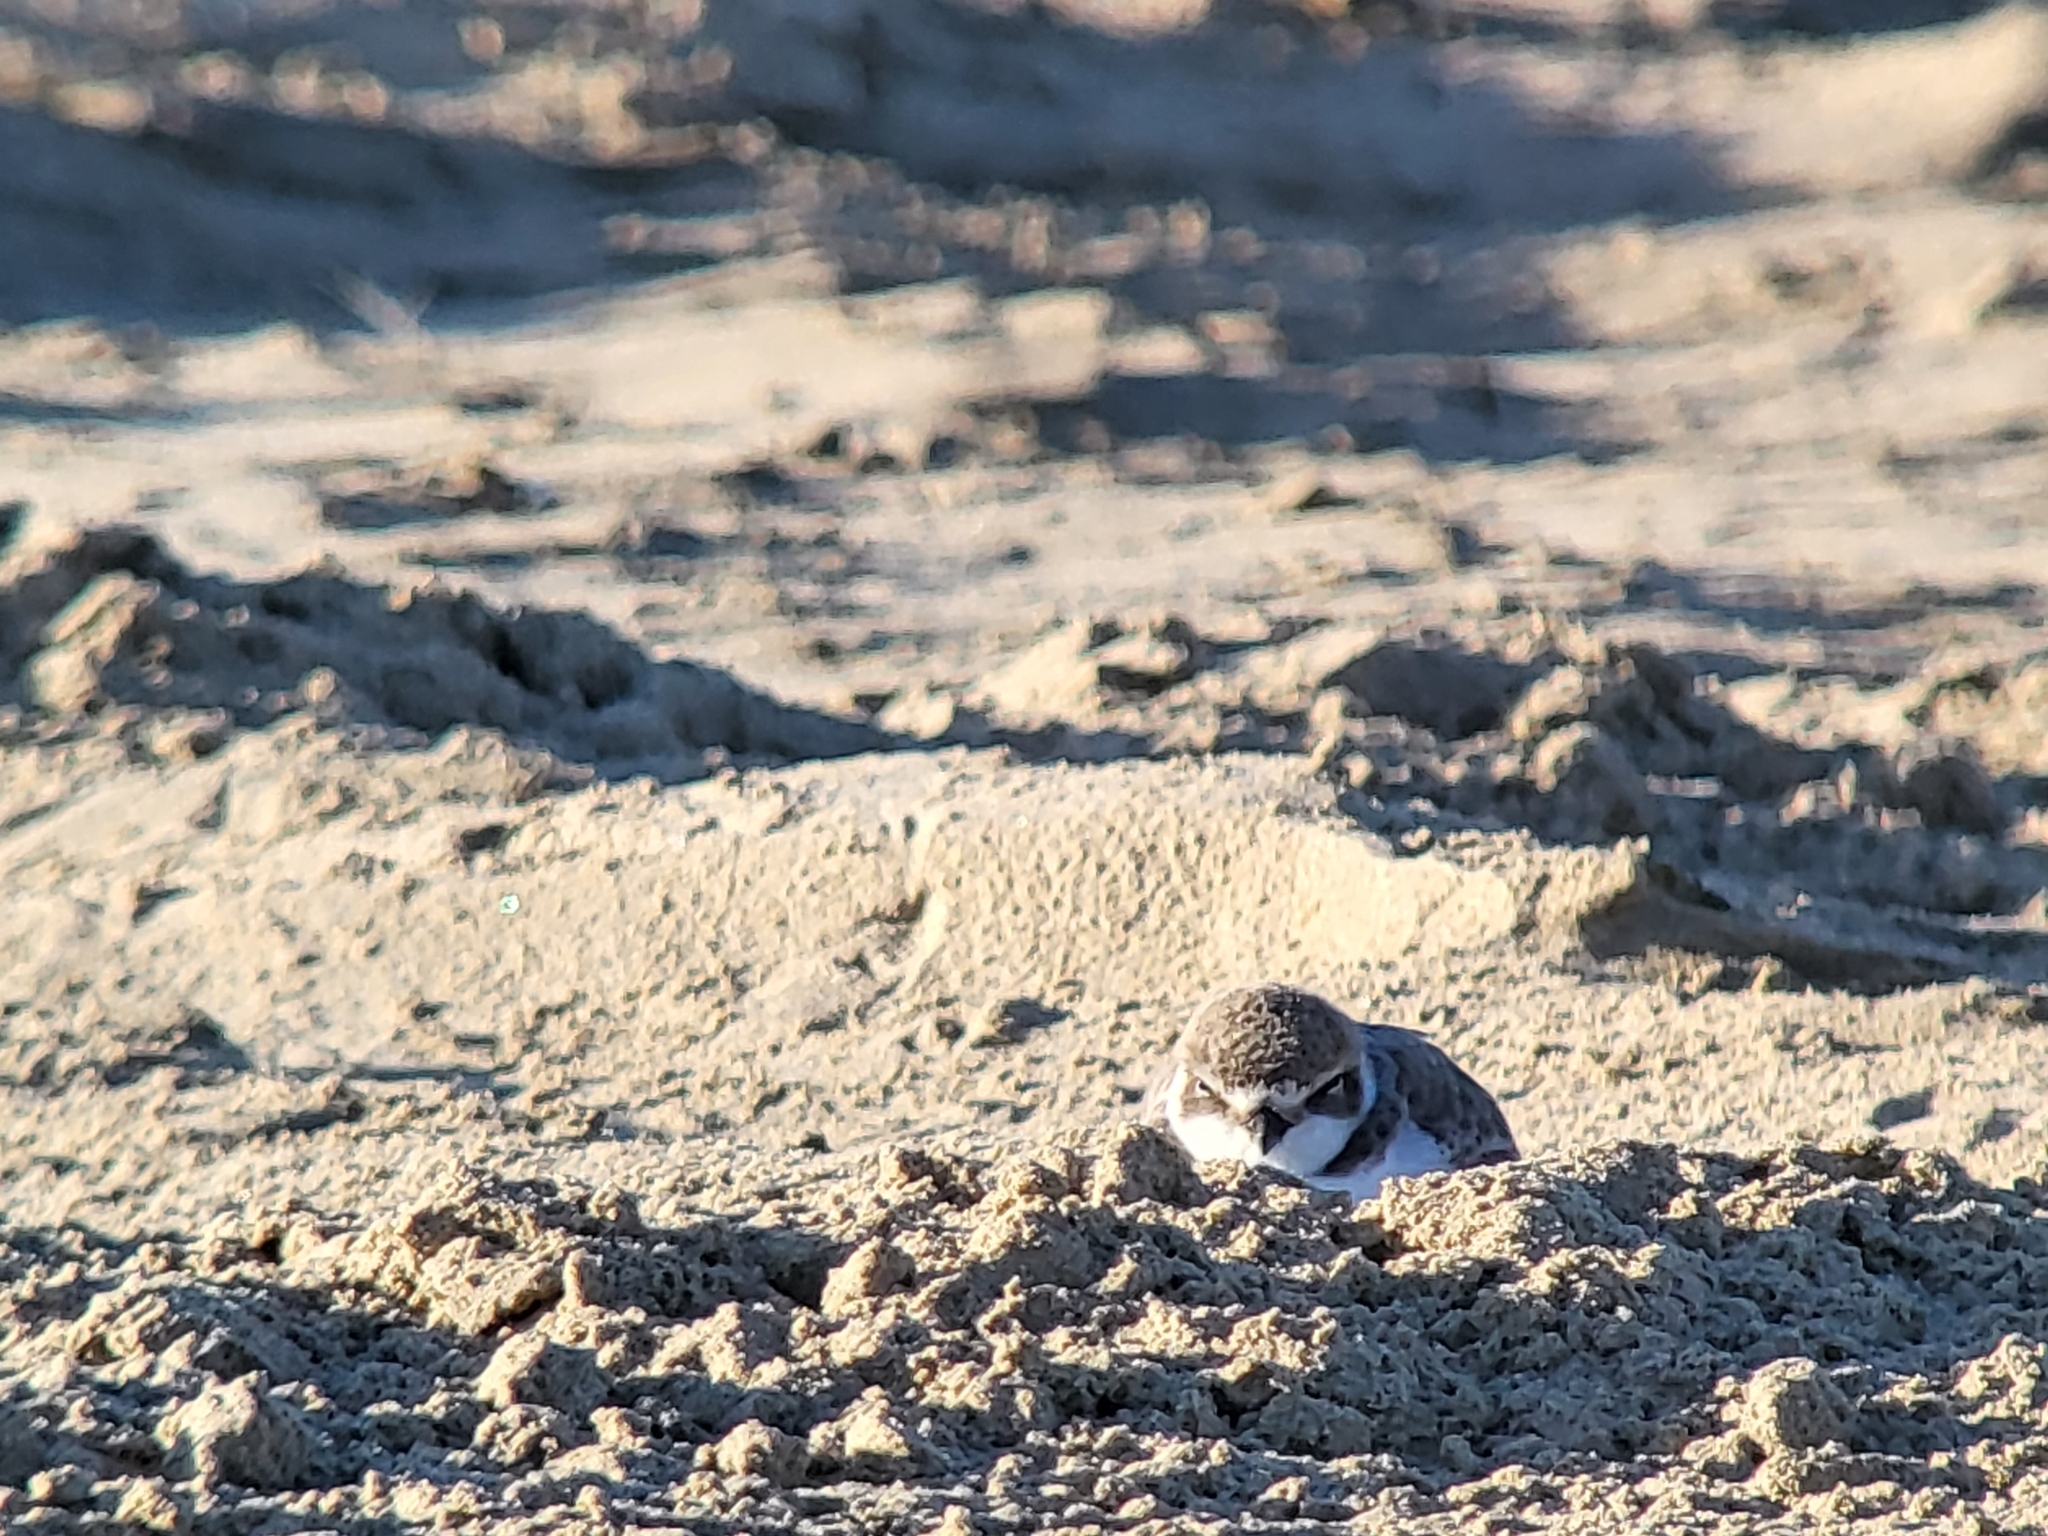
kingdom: Animalia
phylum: Chordata
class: Aves
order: Charadriiformes
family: Charadriidae
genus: Anarhynchus
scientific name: Anarhynchus
